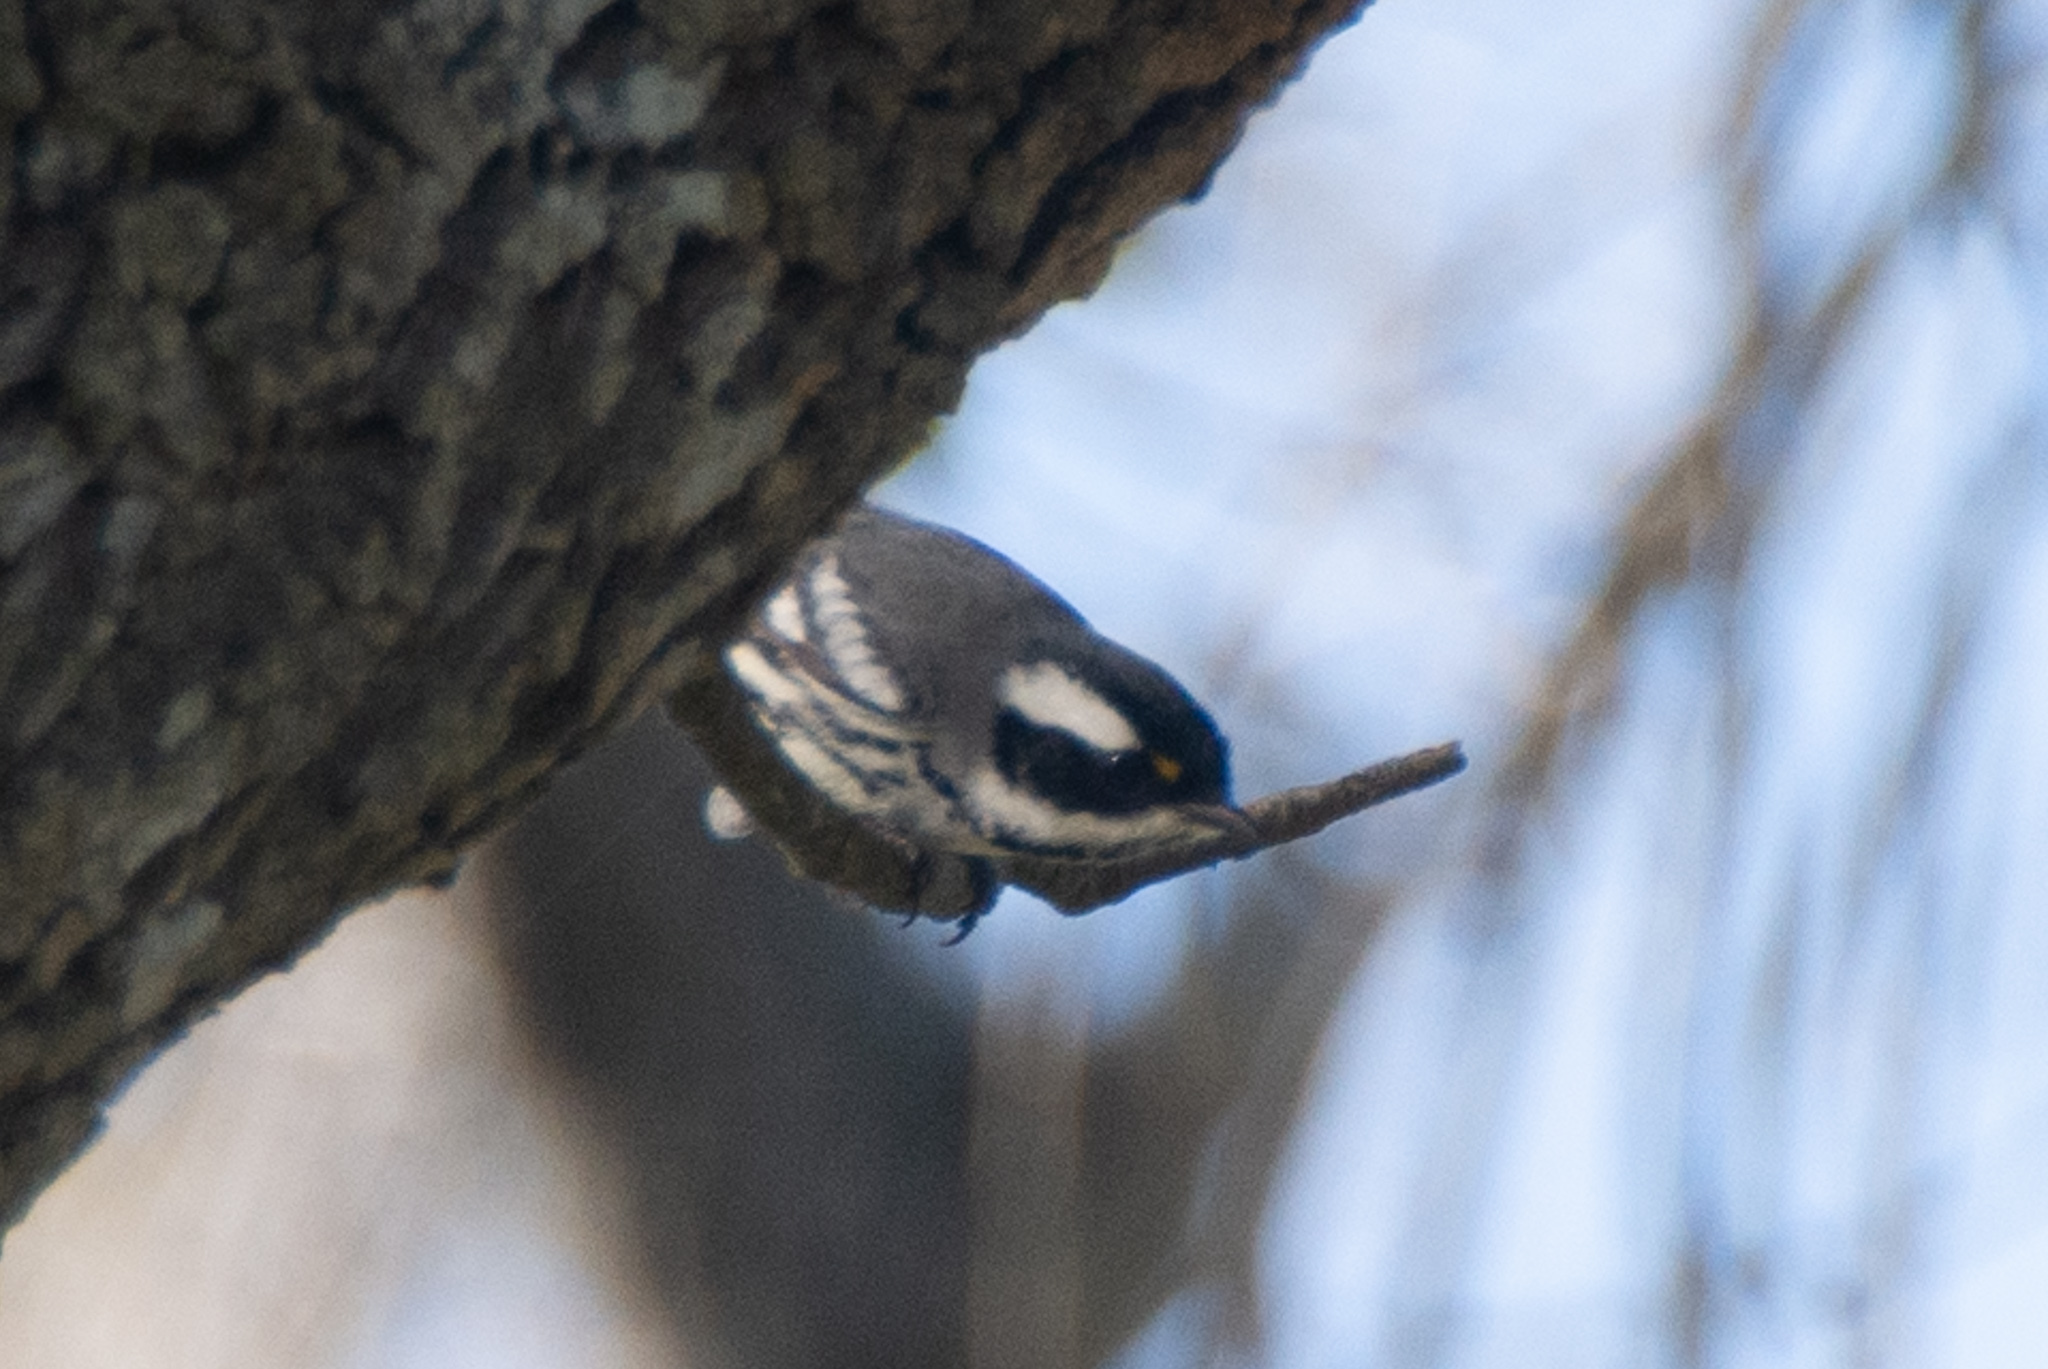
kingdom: Animalia
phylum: Chordata
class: Aves
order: Passeriformes
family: Parulidae
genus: Setophaga
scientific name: Setophaga nigrescens
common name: Black-throated gray warbler
